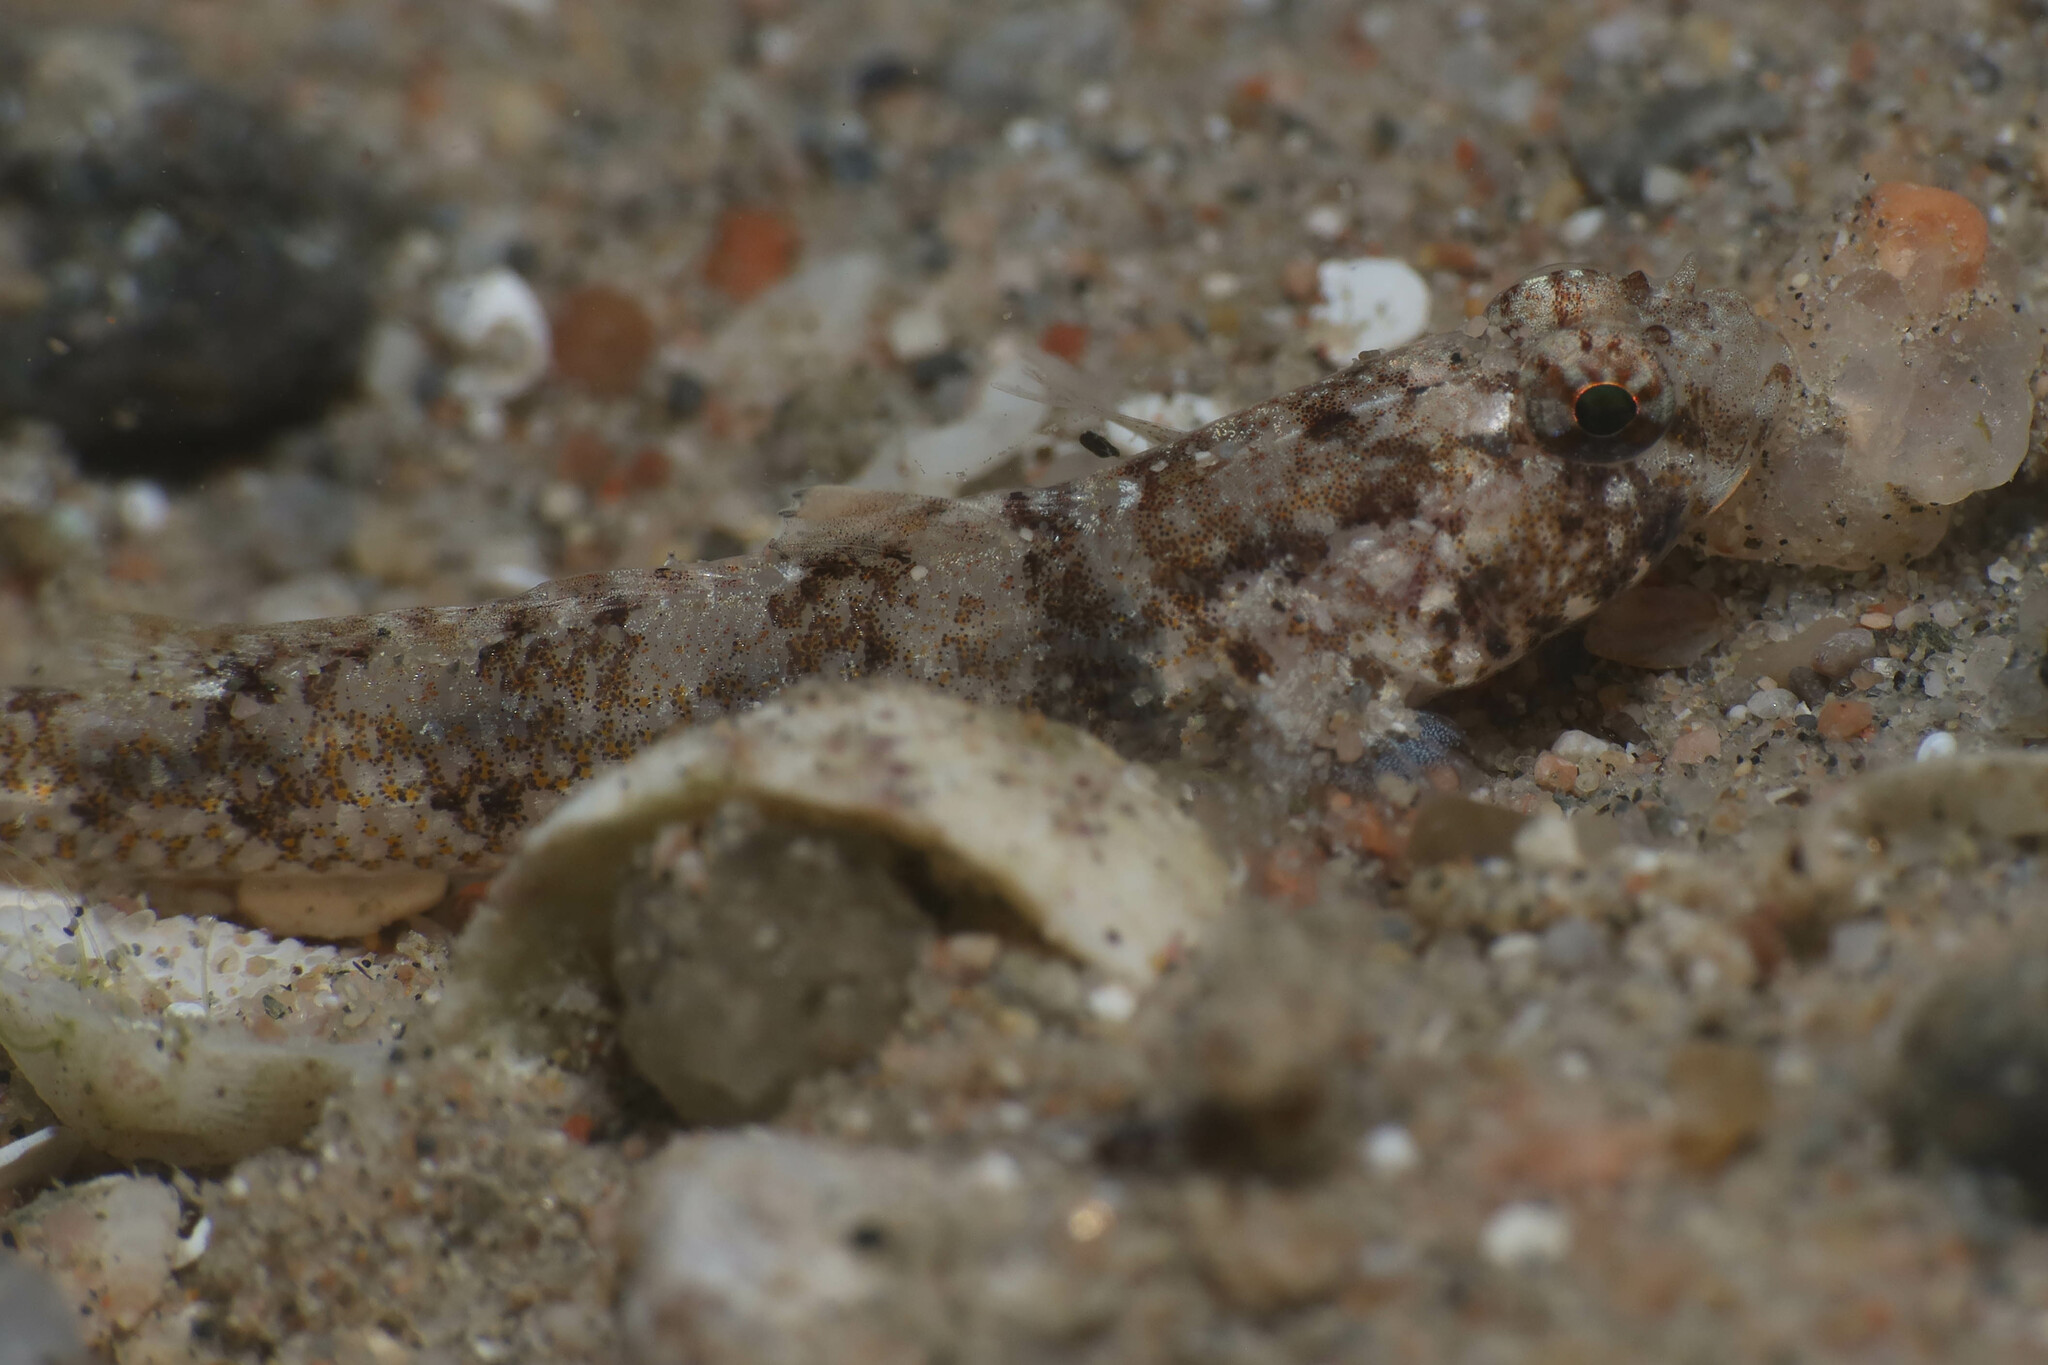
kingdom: Animalia
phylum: Chordata
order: Perciformes
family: Gobiidae
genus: Coryogalops
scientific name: Coryogalops anomolus
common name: Anomolous goby
